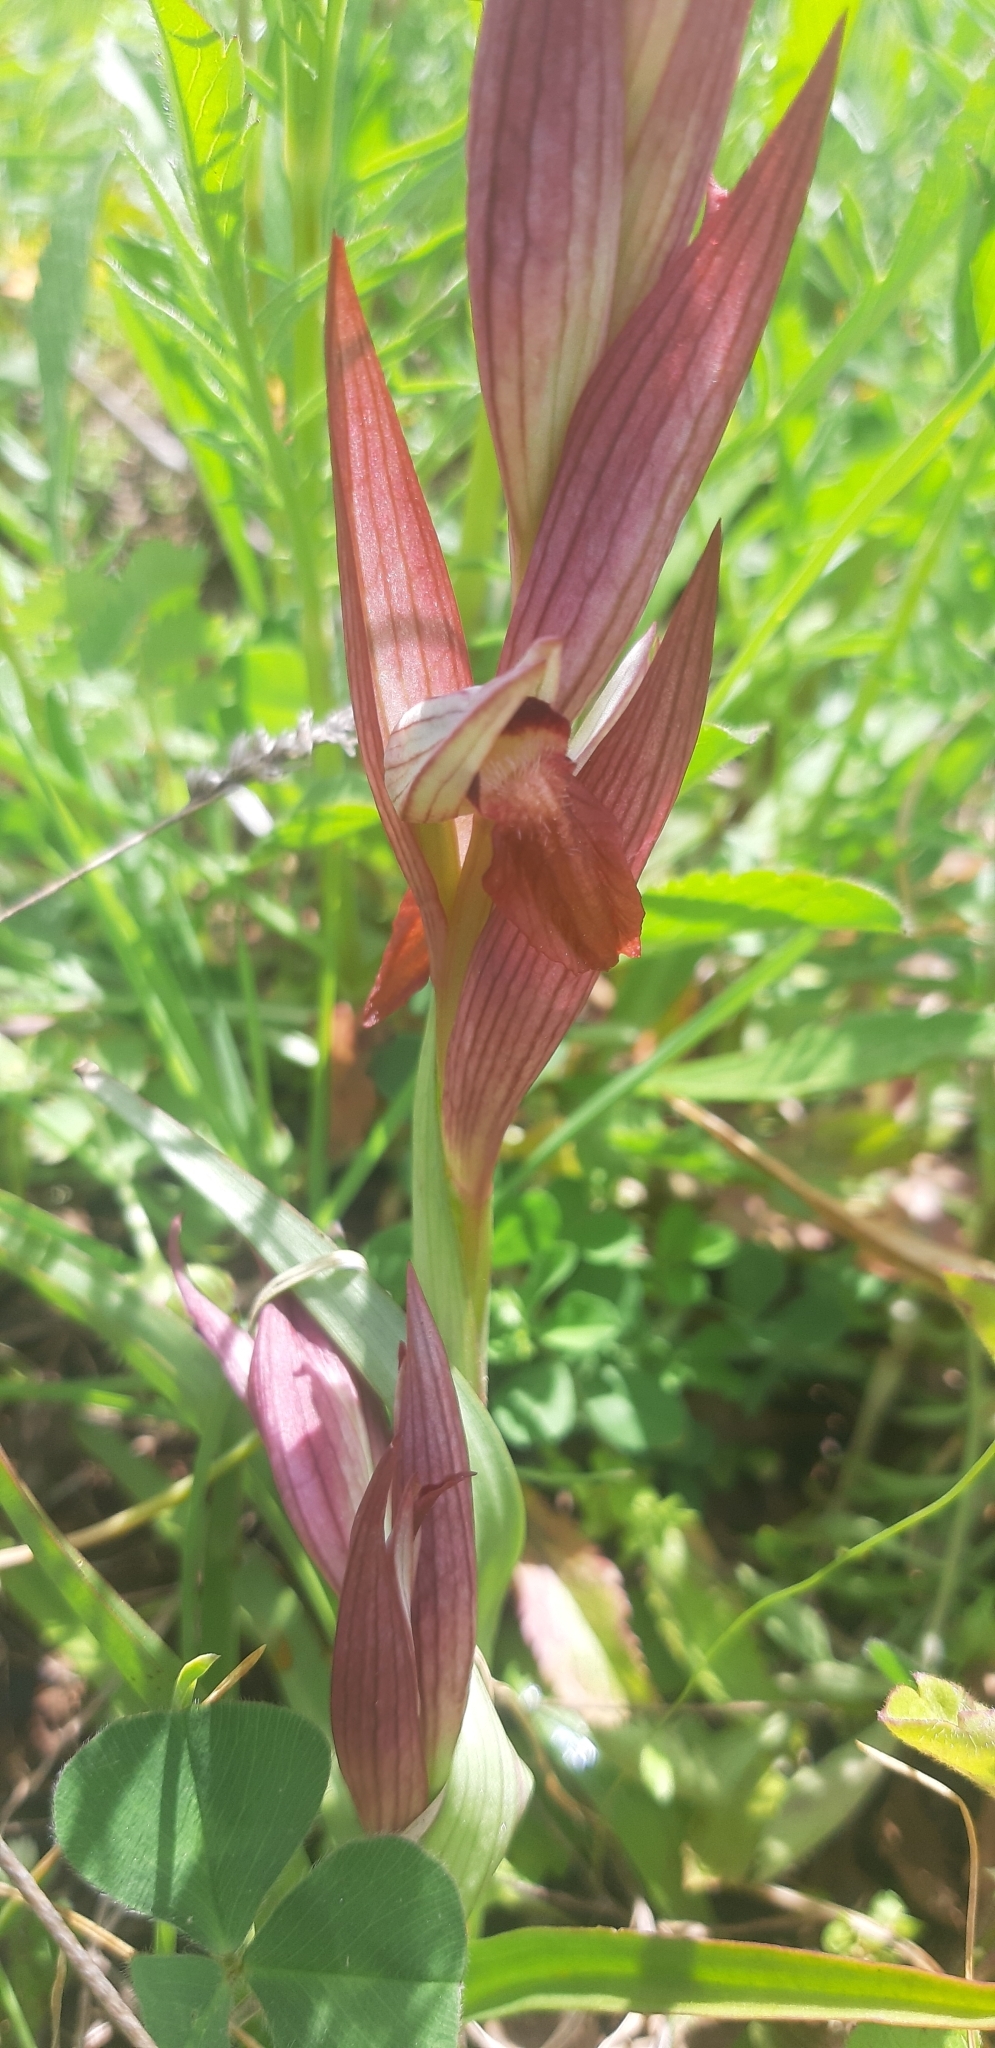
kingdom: Plantae
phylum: Tracheophyta
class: Liliopsida
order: Asparagales
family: Orchidaceae
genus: Serapias
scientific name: Serapias vomeracea
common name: Long-lipped tongue-orchid
